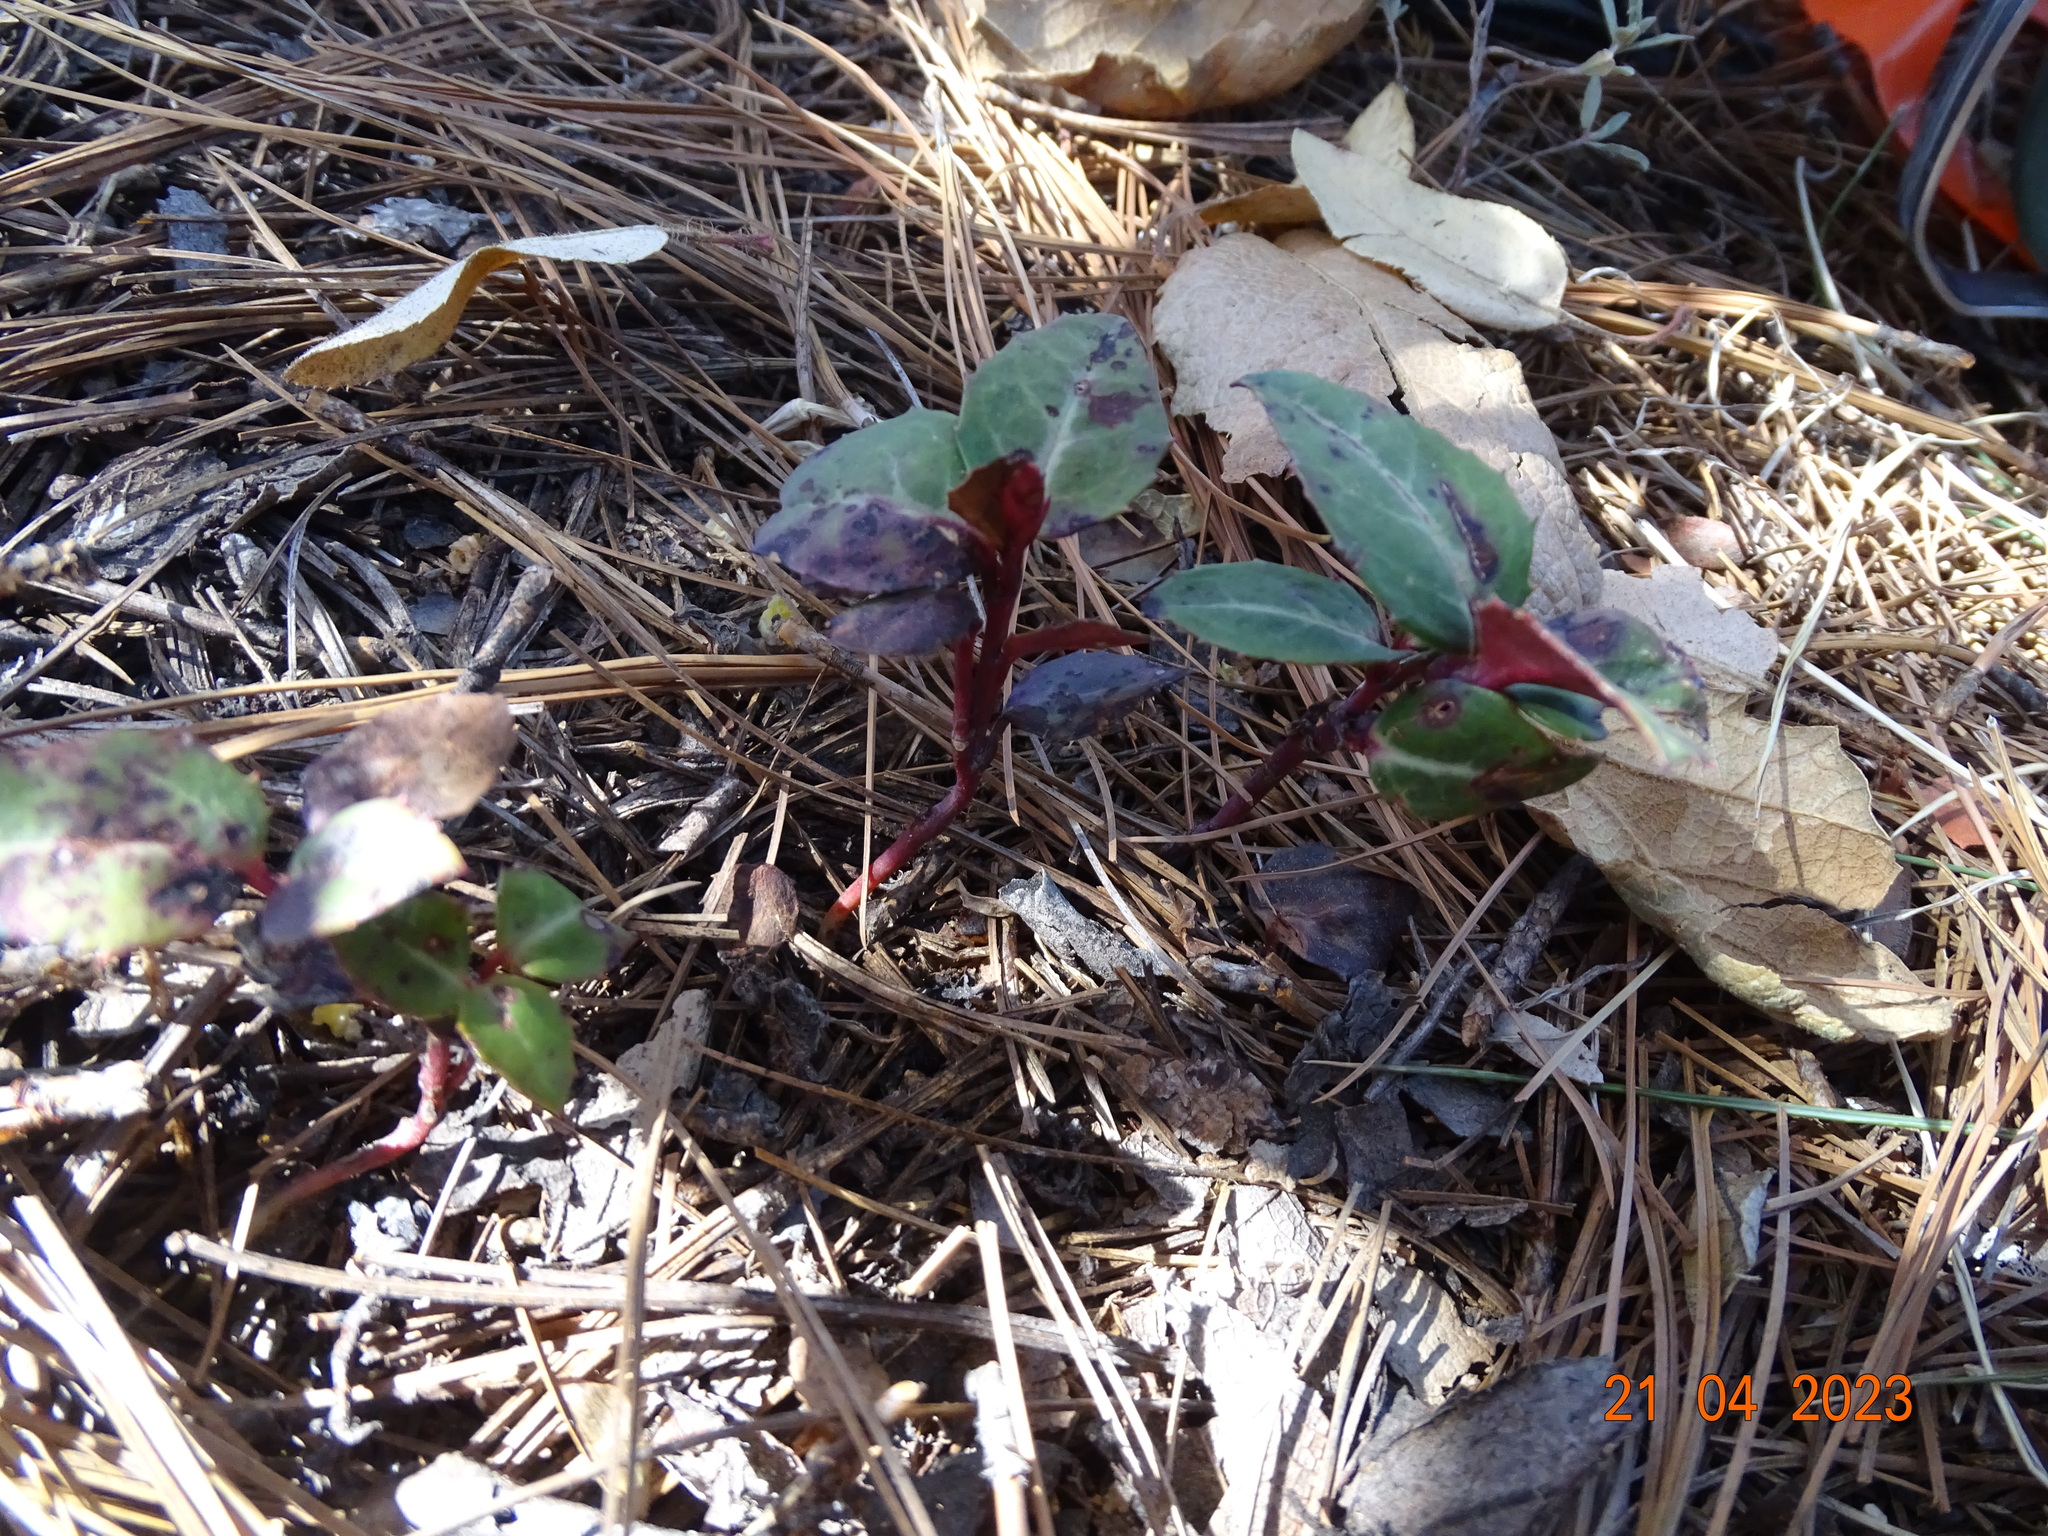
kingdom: Plantae
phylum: Tracheophyta
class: Magnoliopsida
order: Ericales
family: Ericaceae
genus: Chimaphila
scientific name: Chimaphila maculata
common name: Spotted pipsissewa
